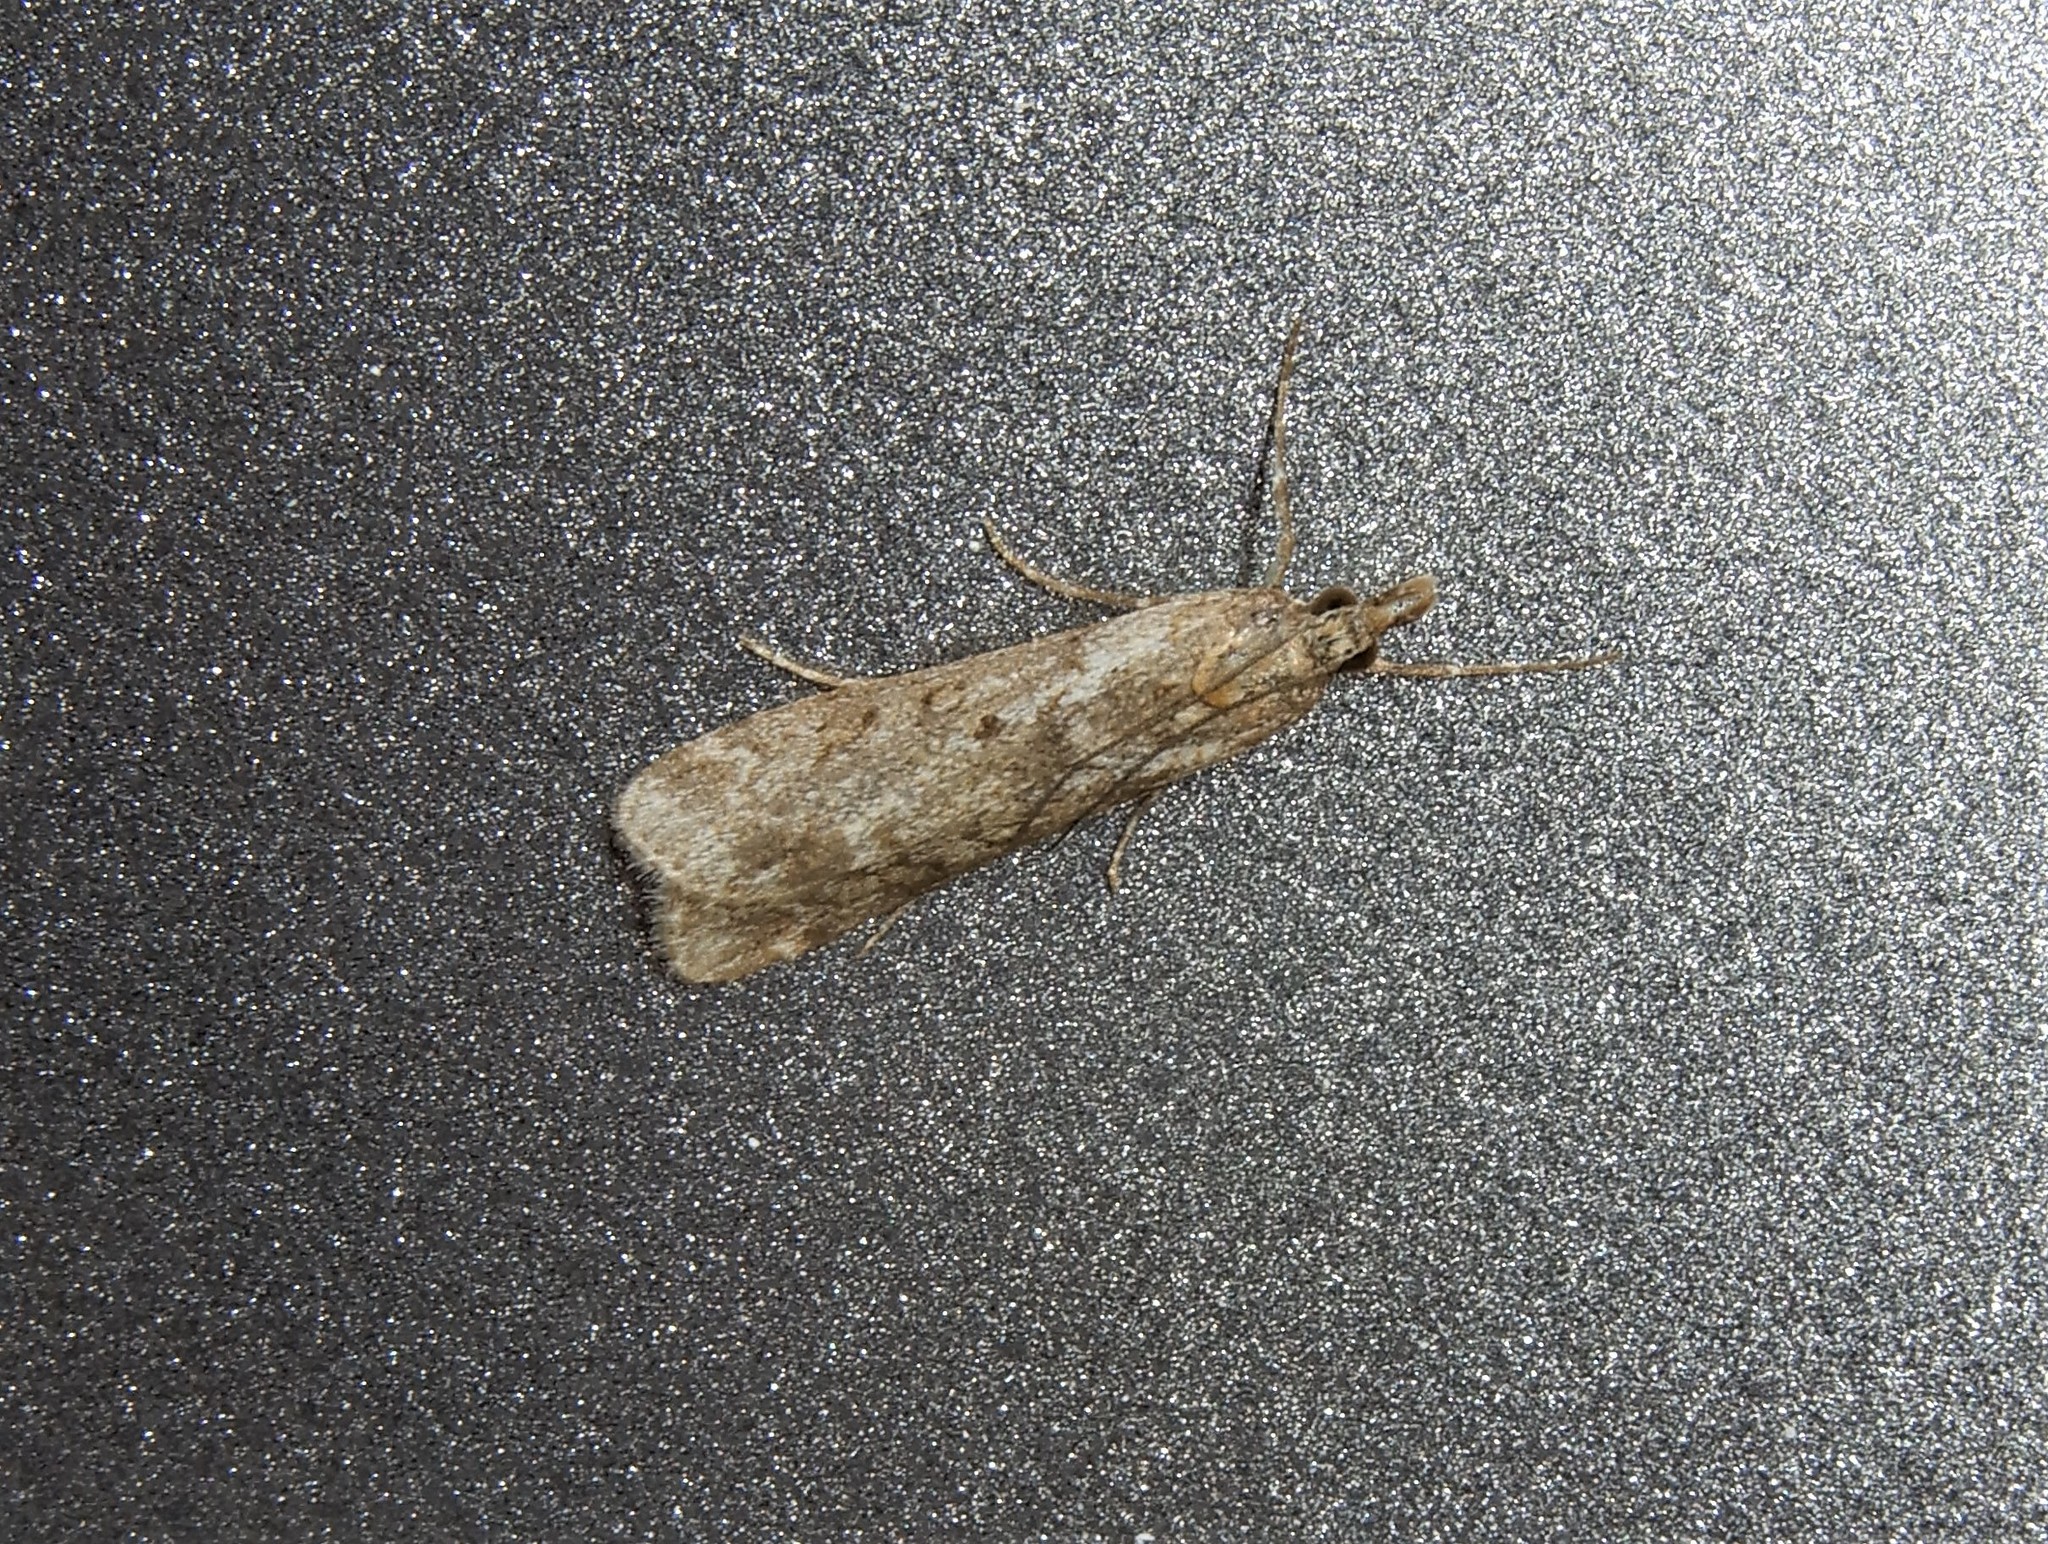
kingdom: Animalia
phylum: Arthropoda
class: Insecta
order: Lepidoptera
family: Crambidae
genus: Eudonia
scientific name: Eudonia leptalea
